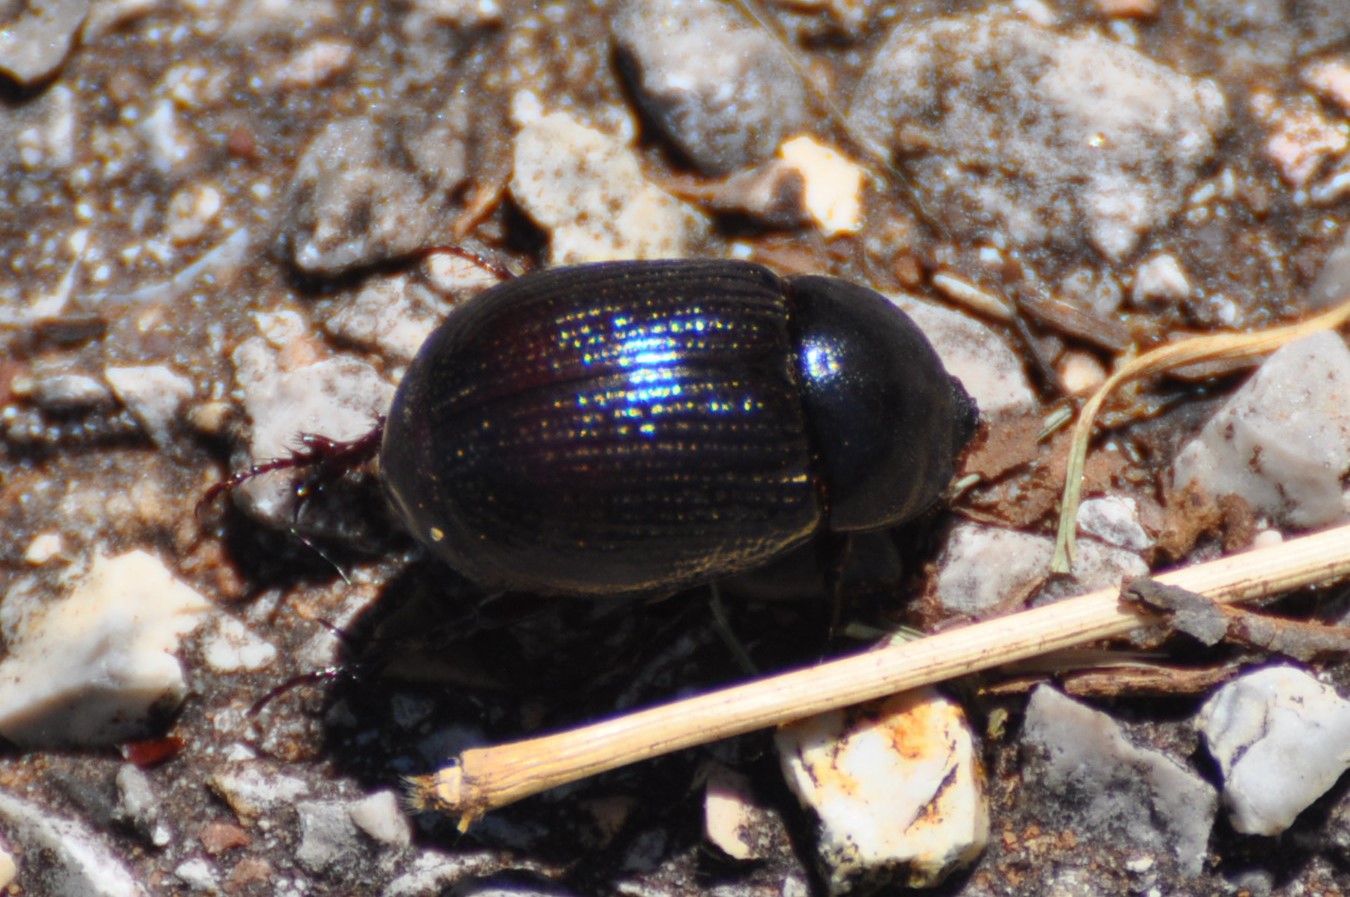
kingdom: Animalia
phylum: Arthropoda
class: Insecta
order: Coleoptera
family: Scarabaeidae
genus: Ligyrus
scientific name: Ligyrus gibbosus
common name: Carrot beetle
